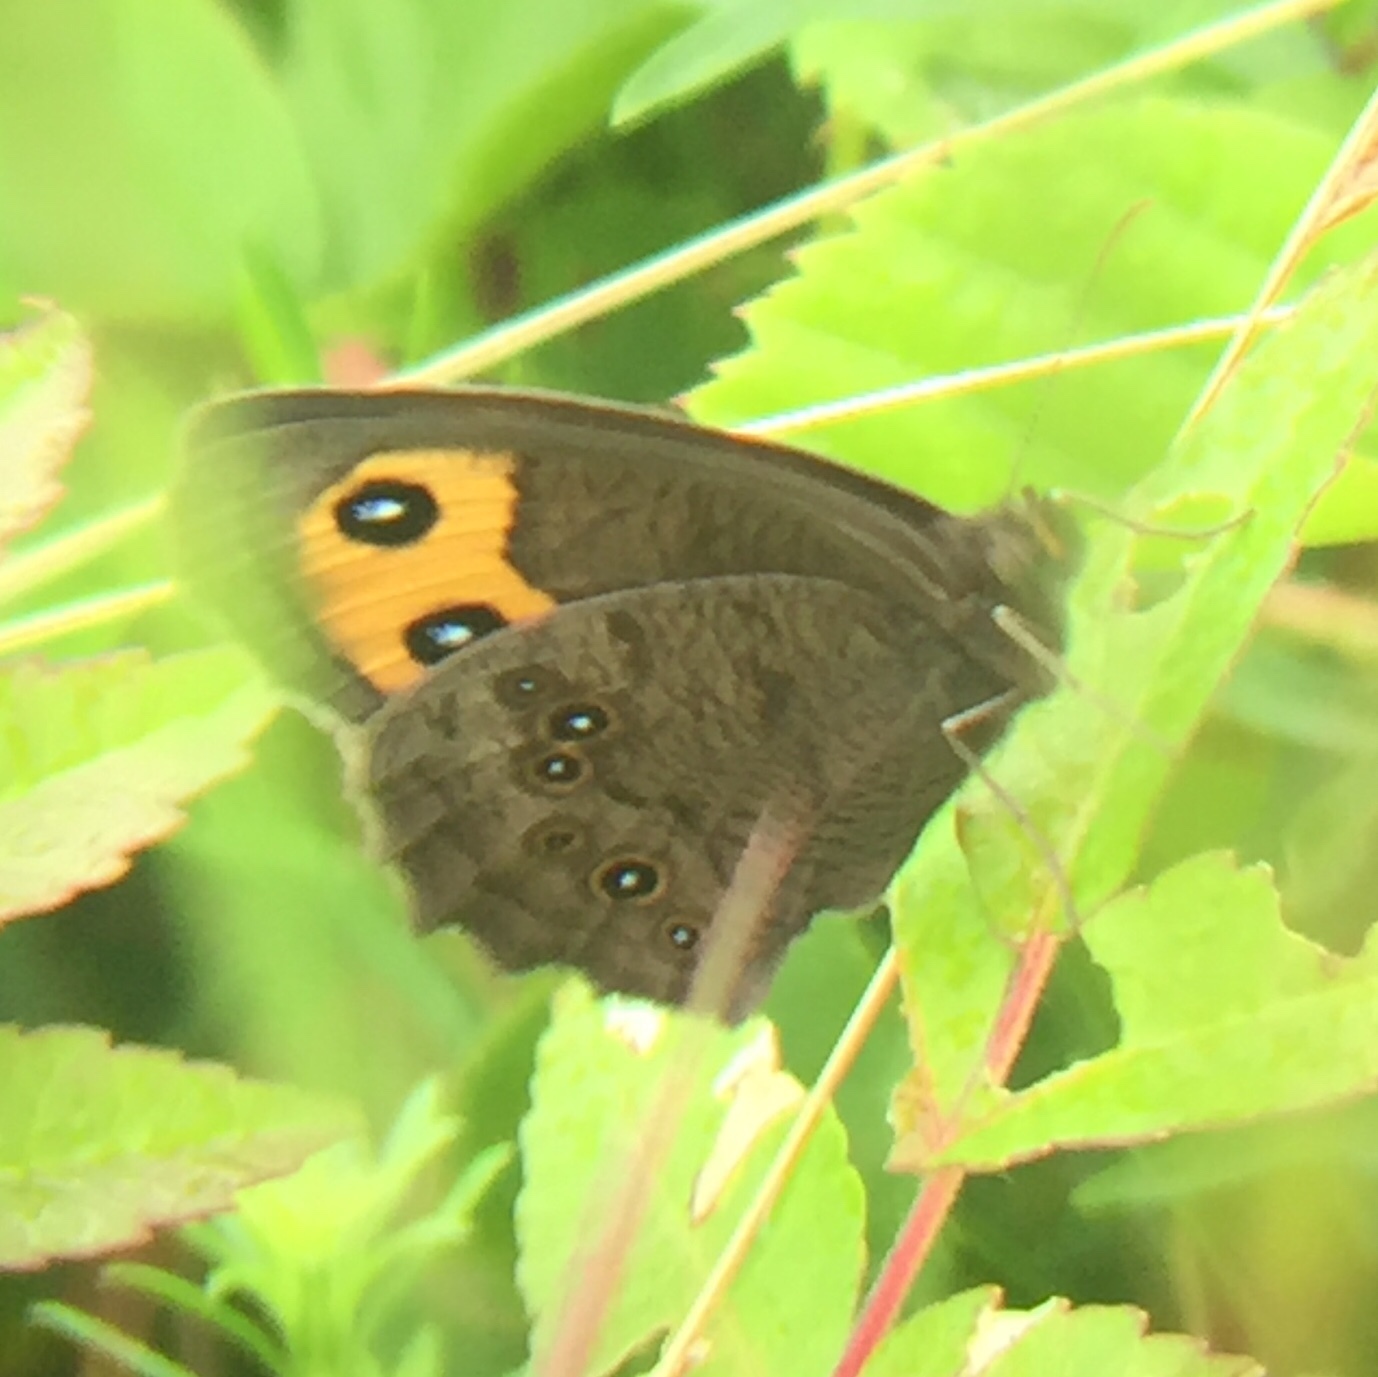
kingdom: Animalia
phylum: Arthropoda
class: Insecta
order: Lepidoptera
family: Nymphalidae
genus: Cercyonis
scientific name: Cercyonis pegala
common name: Common wood-nymph
